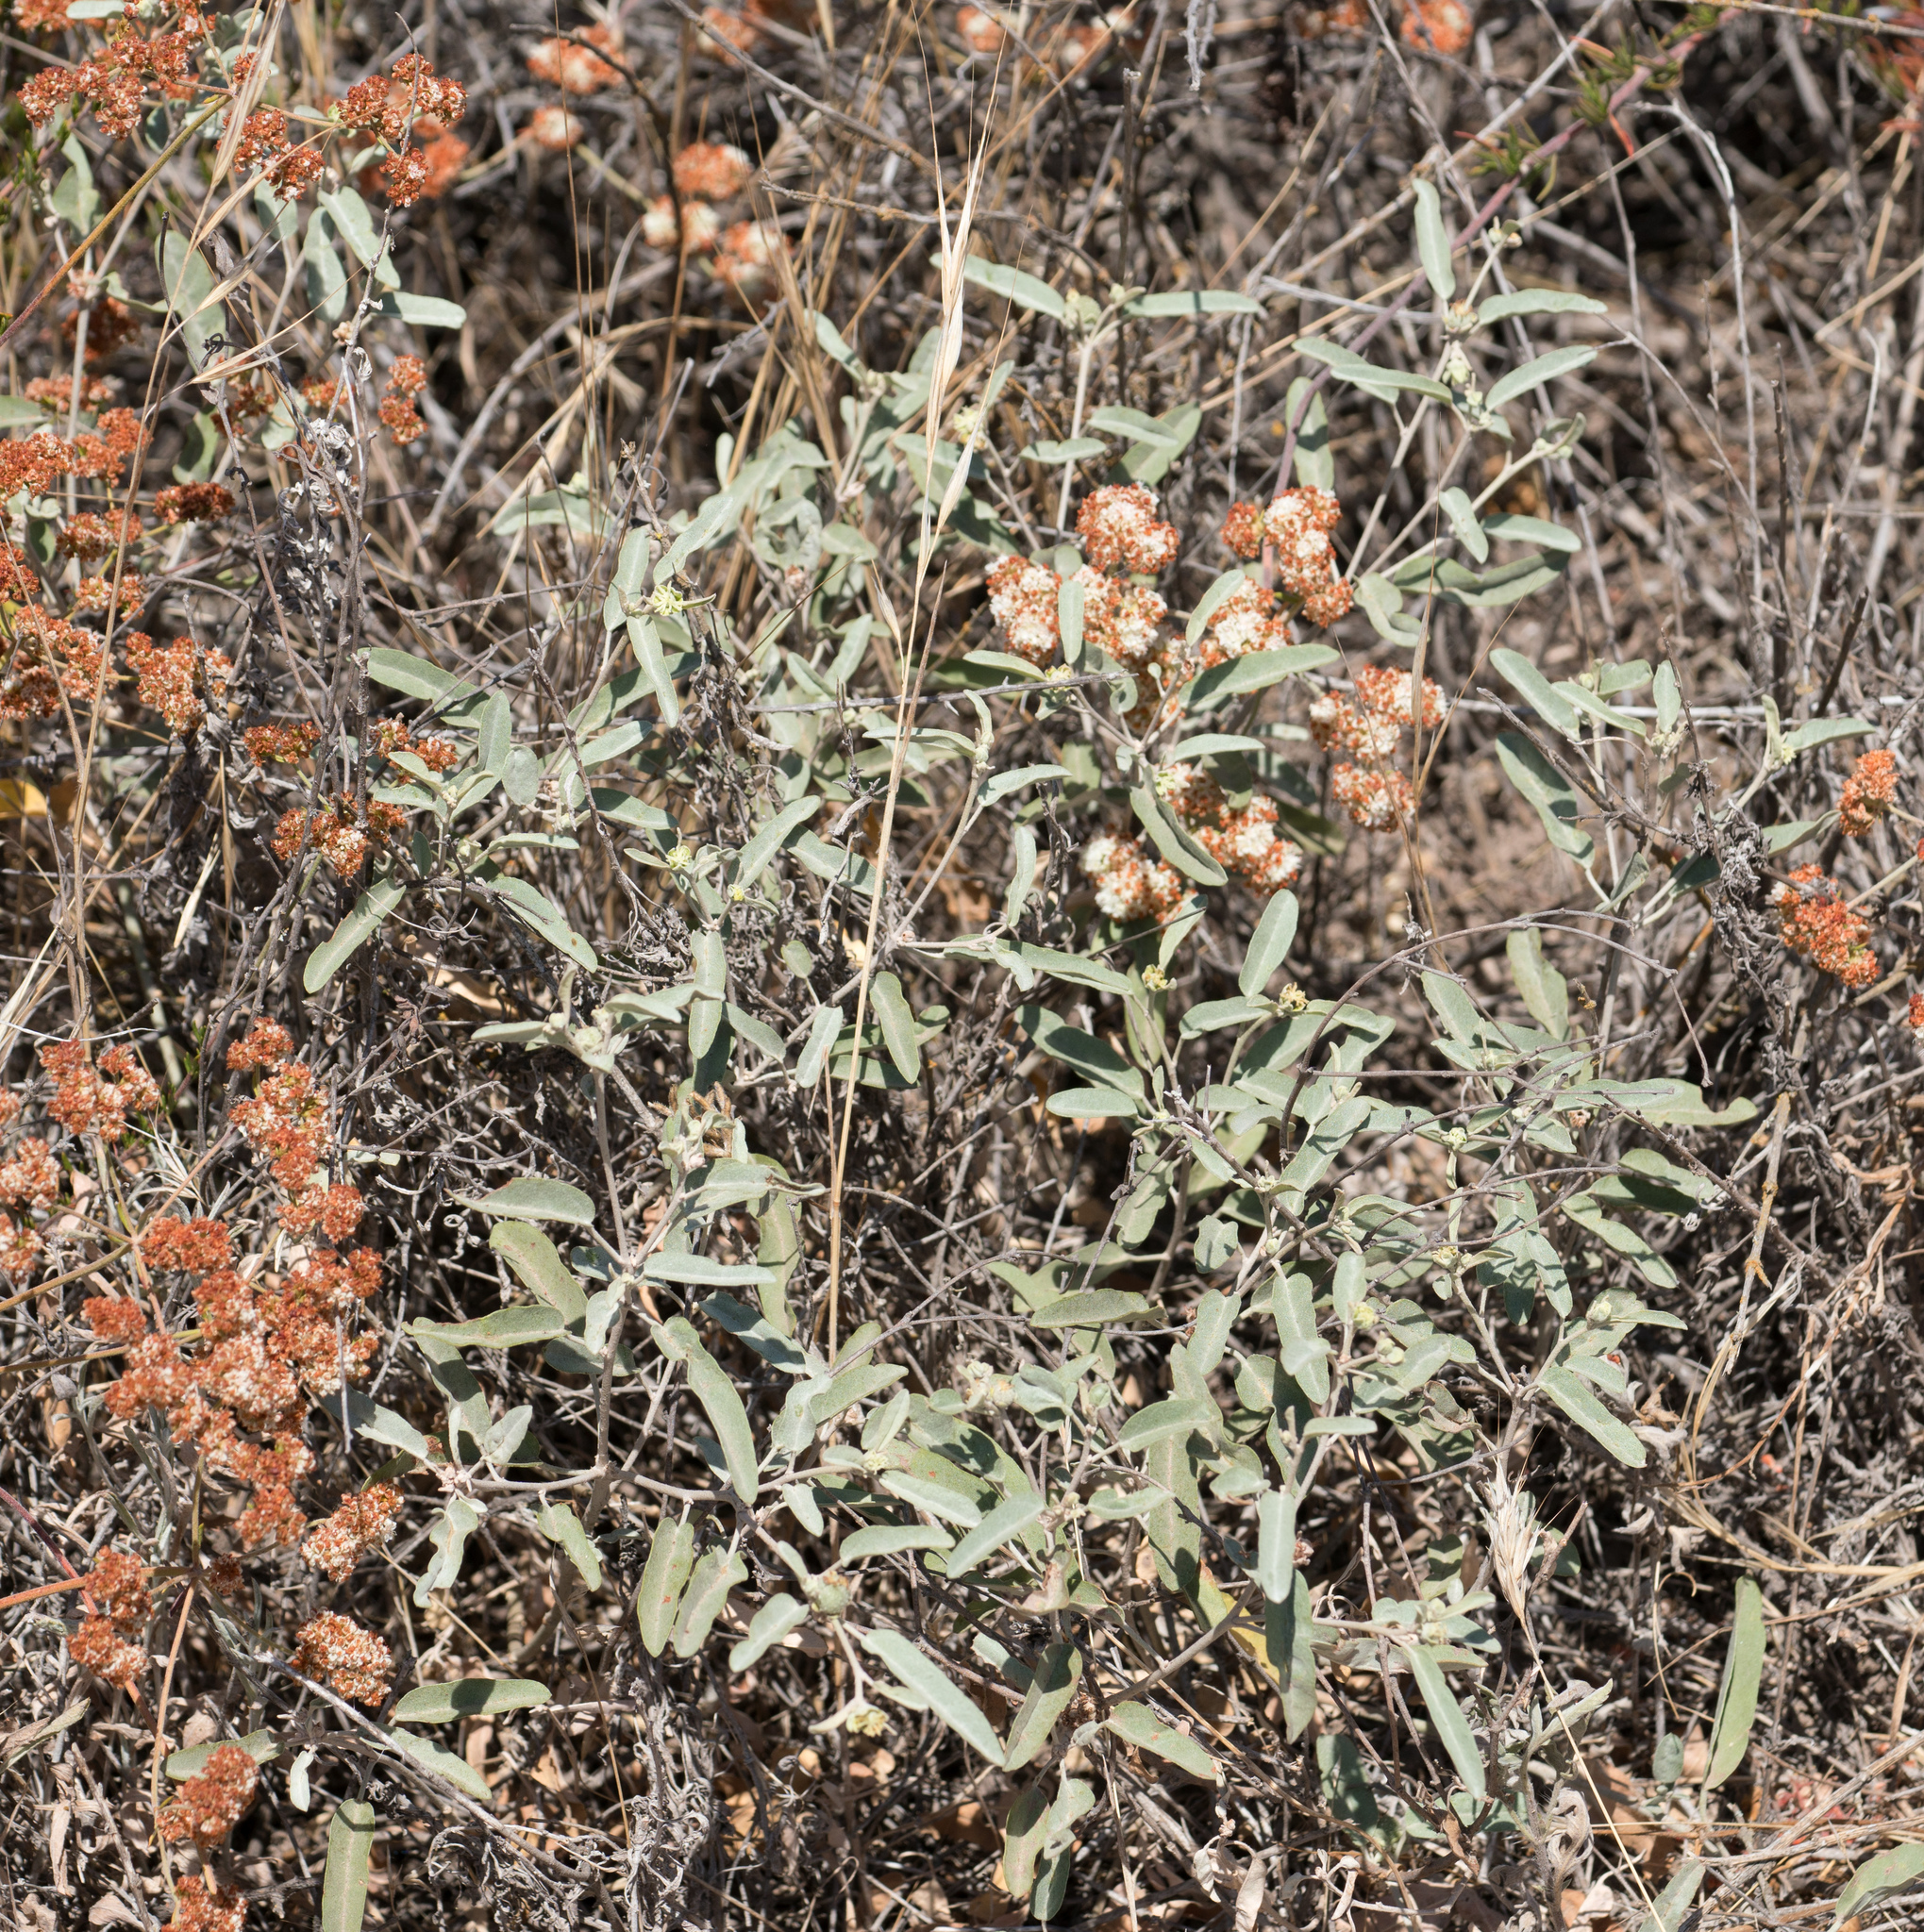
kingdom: Plantae
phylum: Tracheophyta
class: Magnoliopsida
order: Malpighiales
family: Euphorbiaceae
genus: Croton
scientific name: Croton californicus
